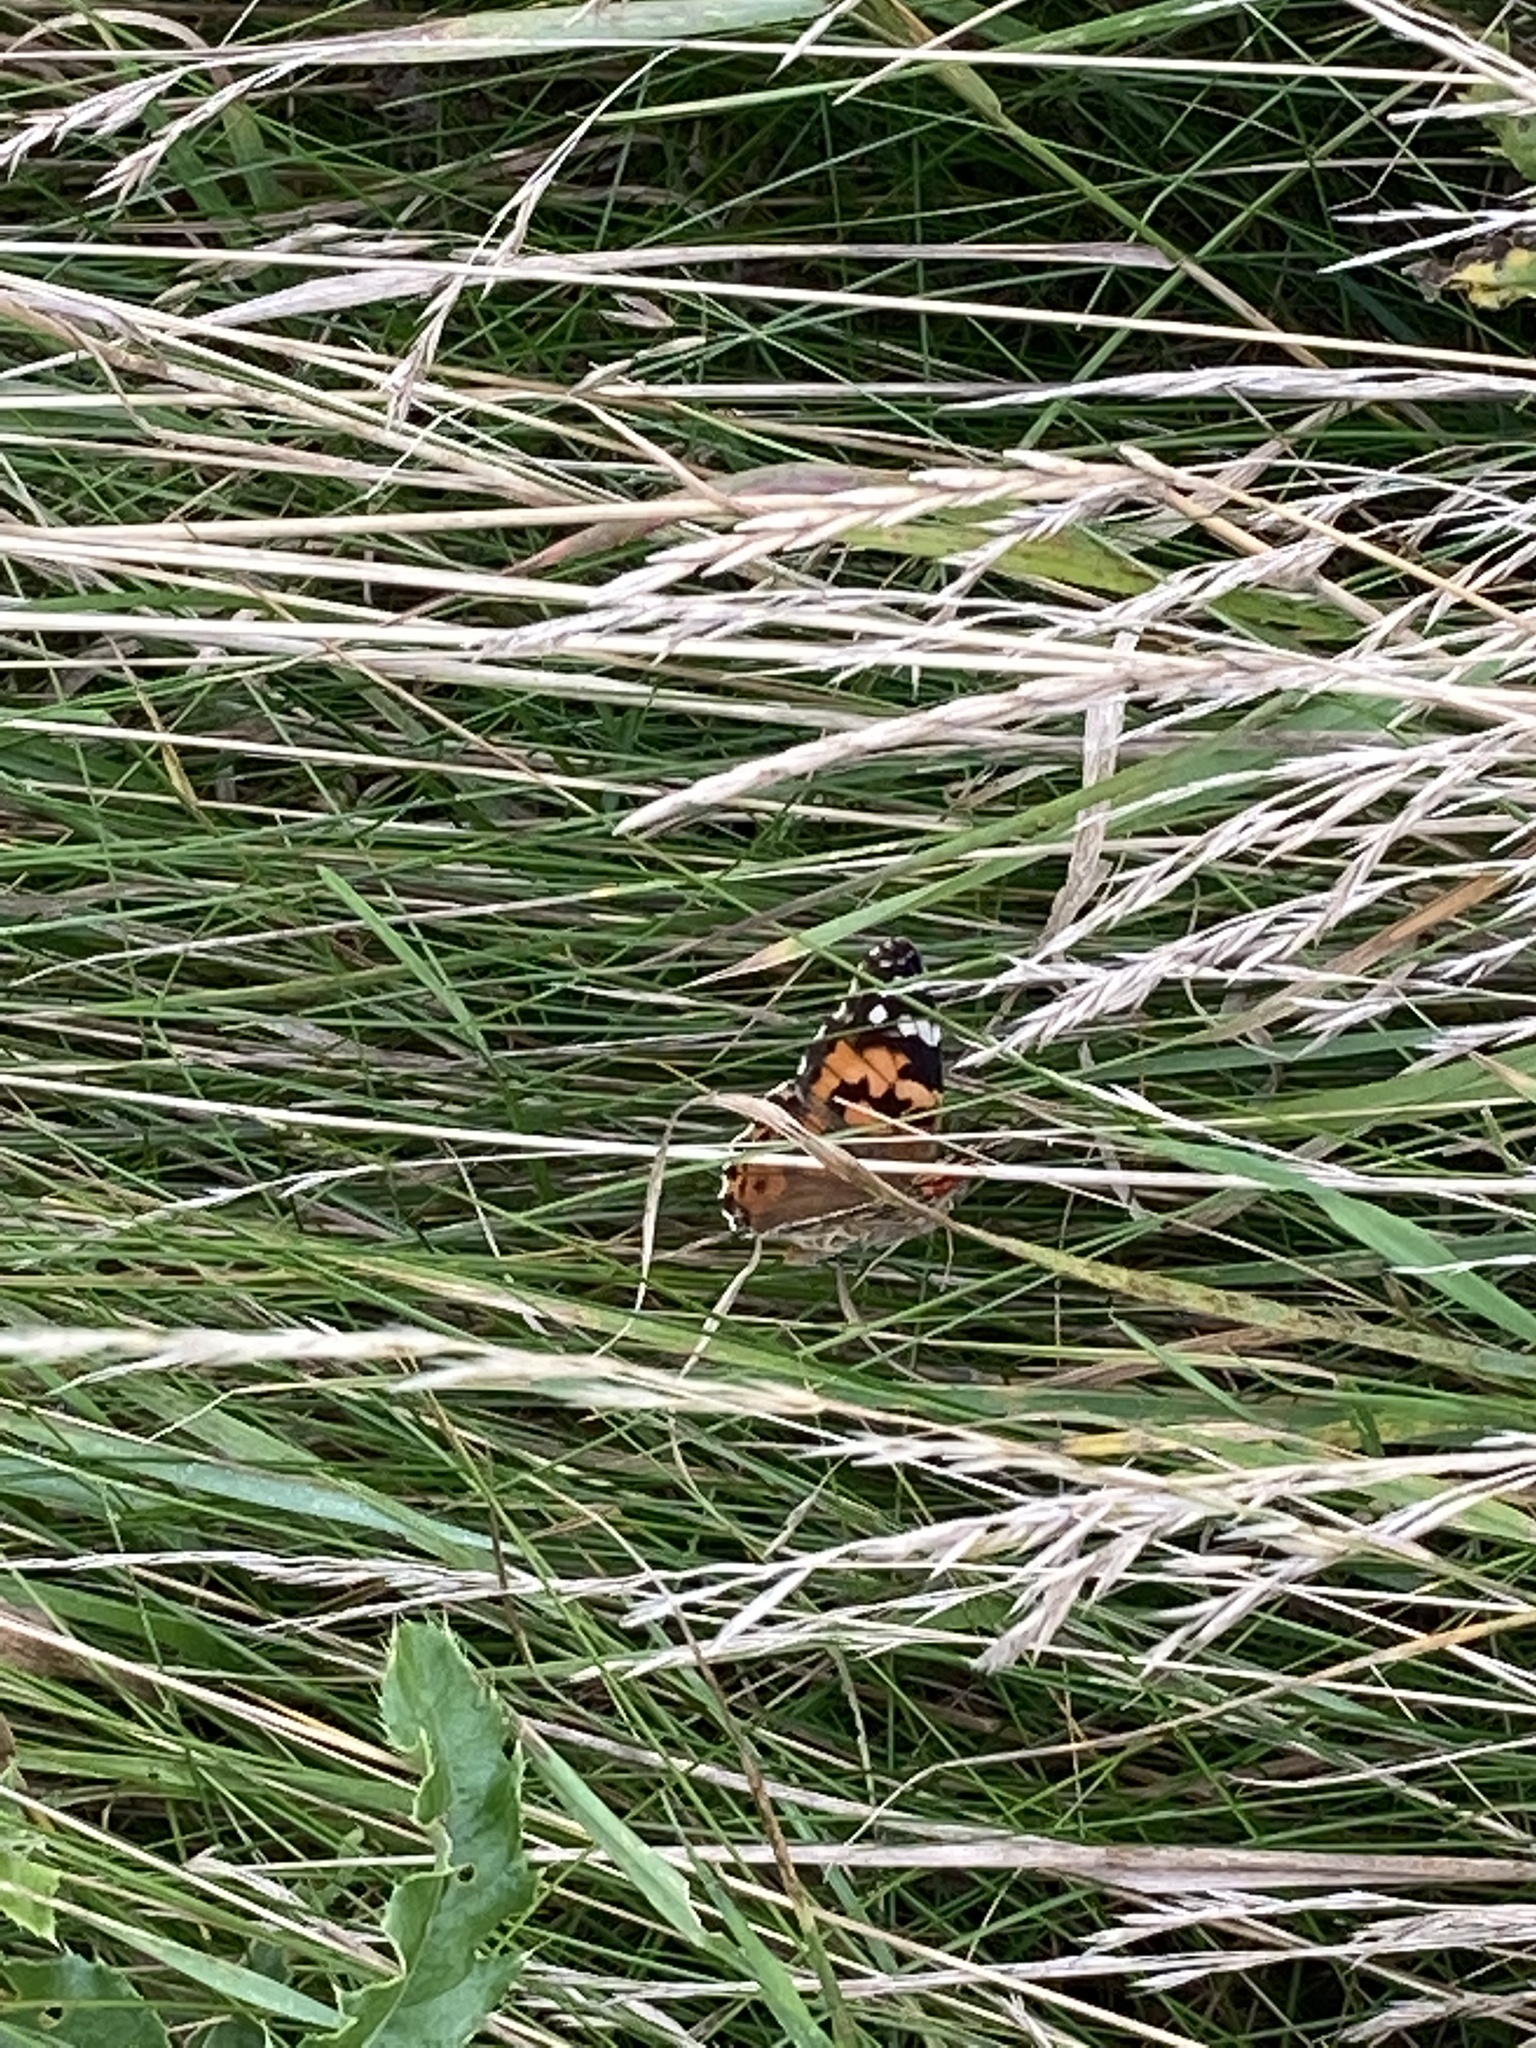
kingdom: Animalia
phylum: Arthropoda
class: Insecta
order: Lepidoptera
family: Nymphalidae
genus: Vanessa
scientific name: Vanessa cardui
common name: Painted lady
